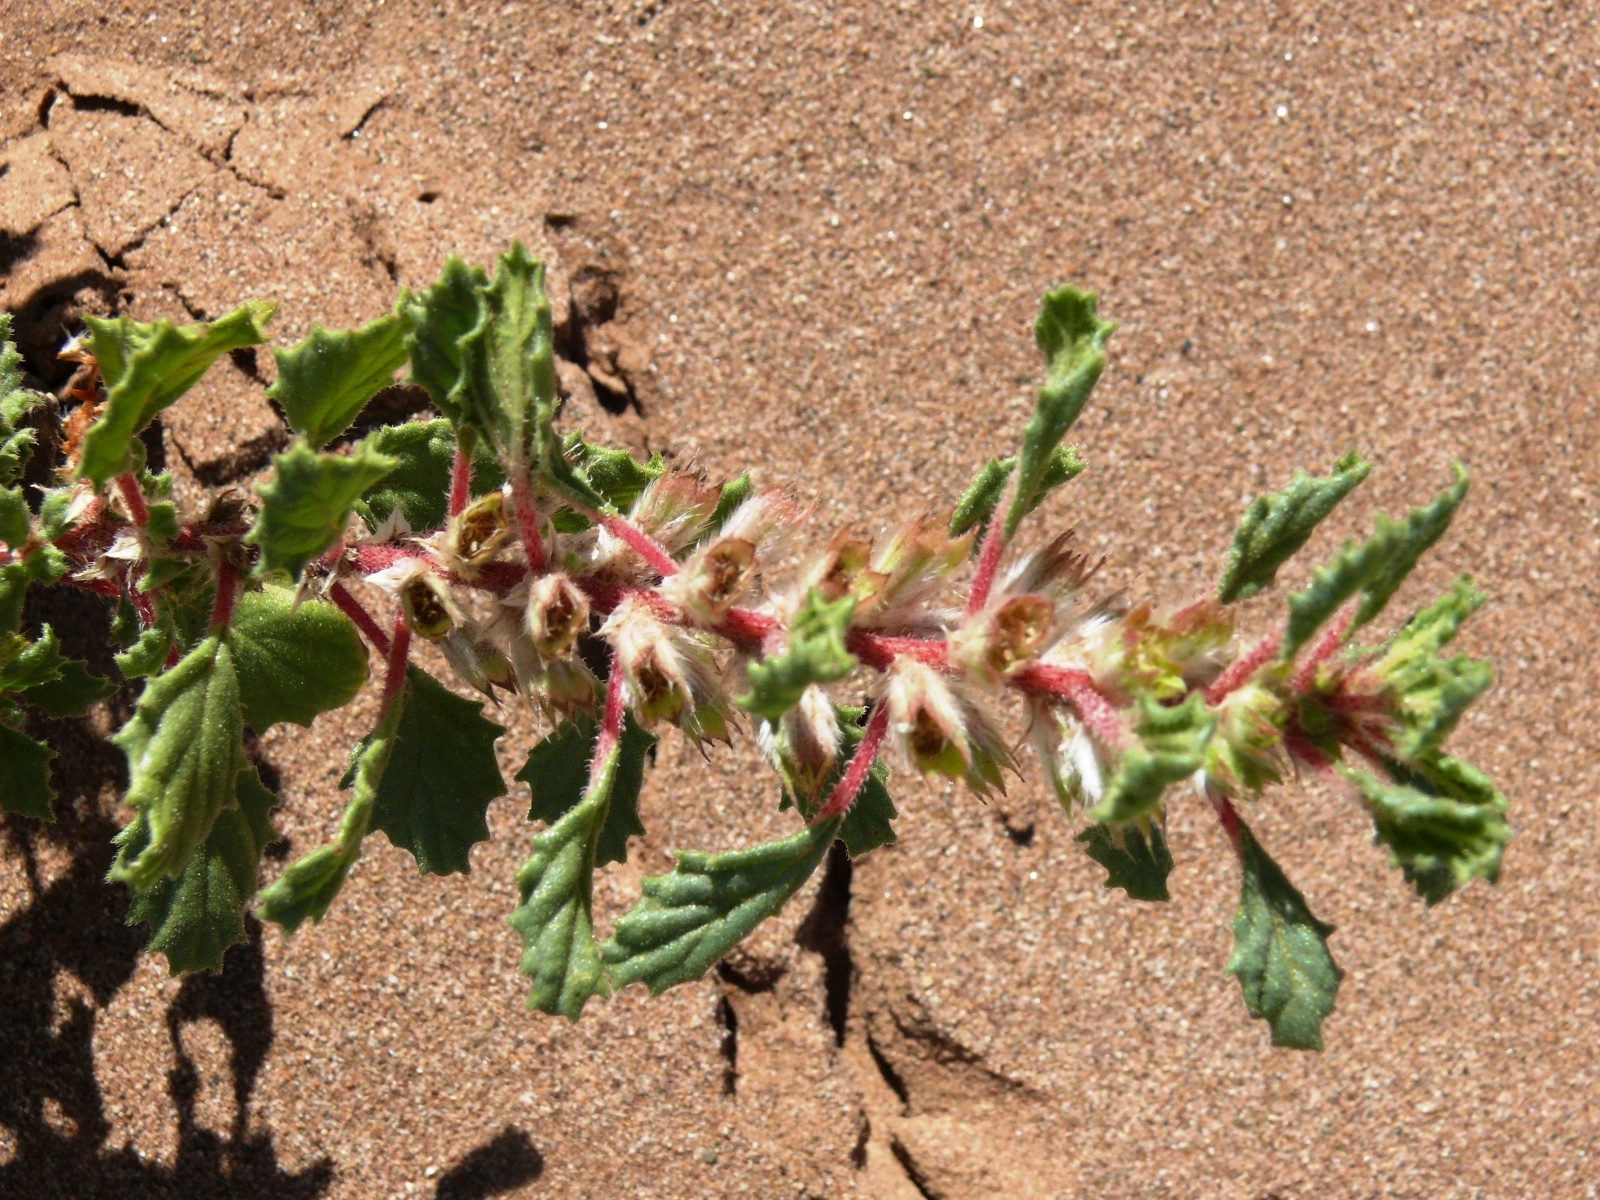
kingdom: Plantae
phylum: Tracheophyta
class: Magnoliopsida
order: Rosales
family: Urticaceae
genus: Forsskaolea
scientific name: Forsskaolea candida
